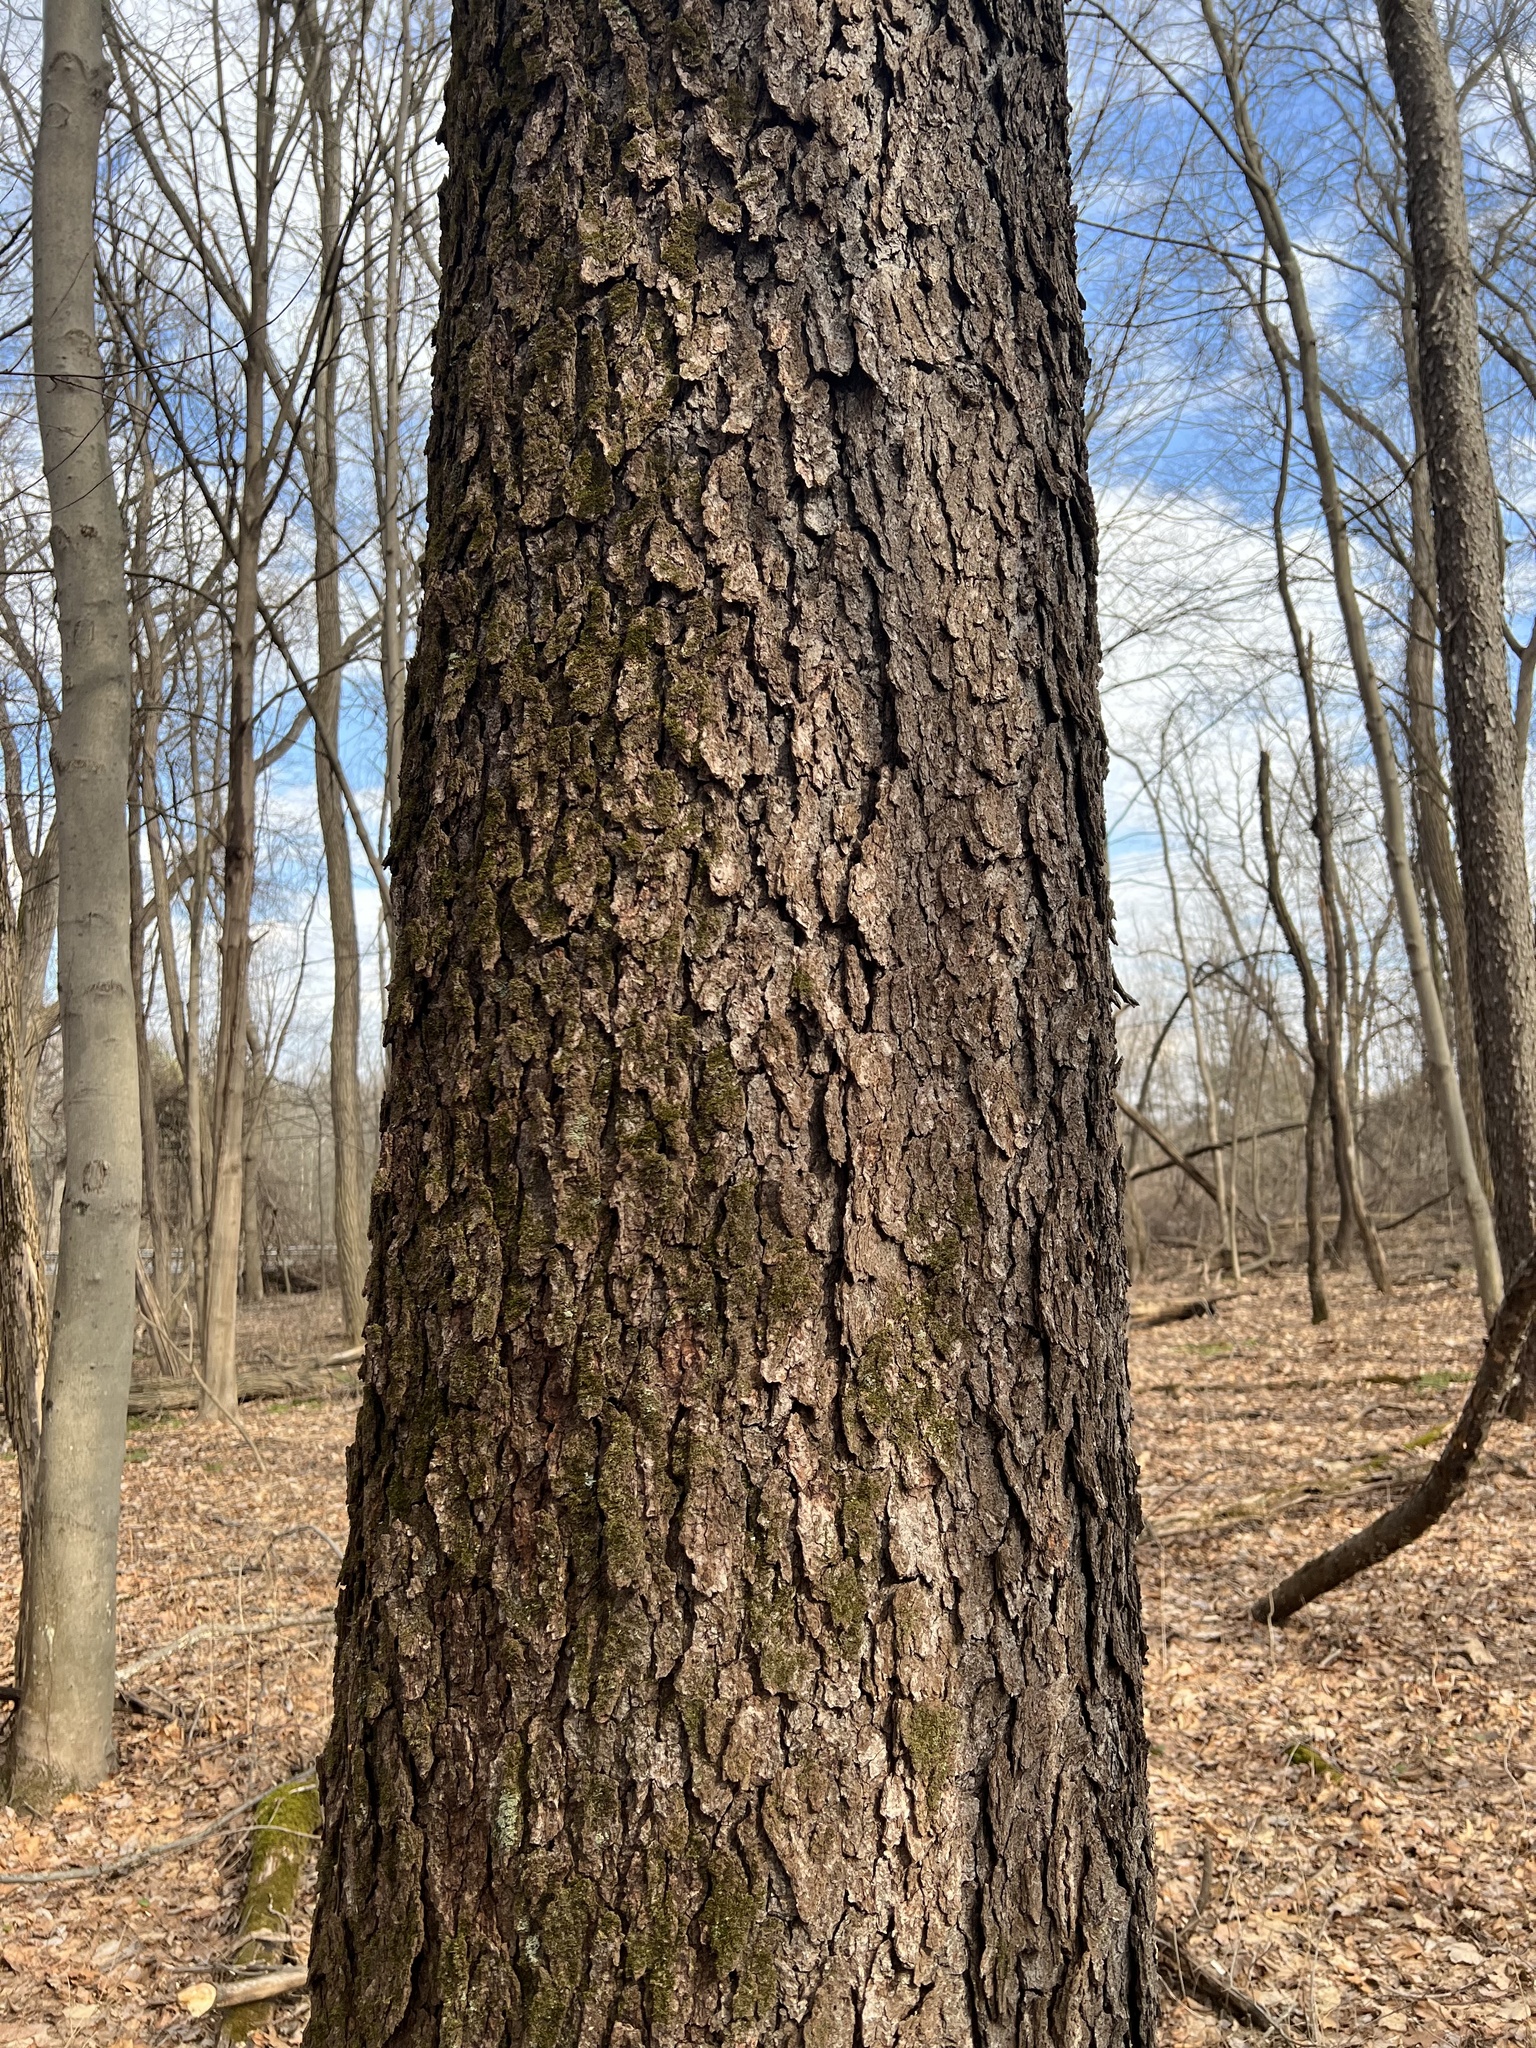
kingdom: Plantae
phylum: Tracheophyta
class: Magnoliopsida
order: Rosales
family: Rosaceae
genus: Prunus
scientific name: Prunus serotina
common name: Black cherry
